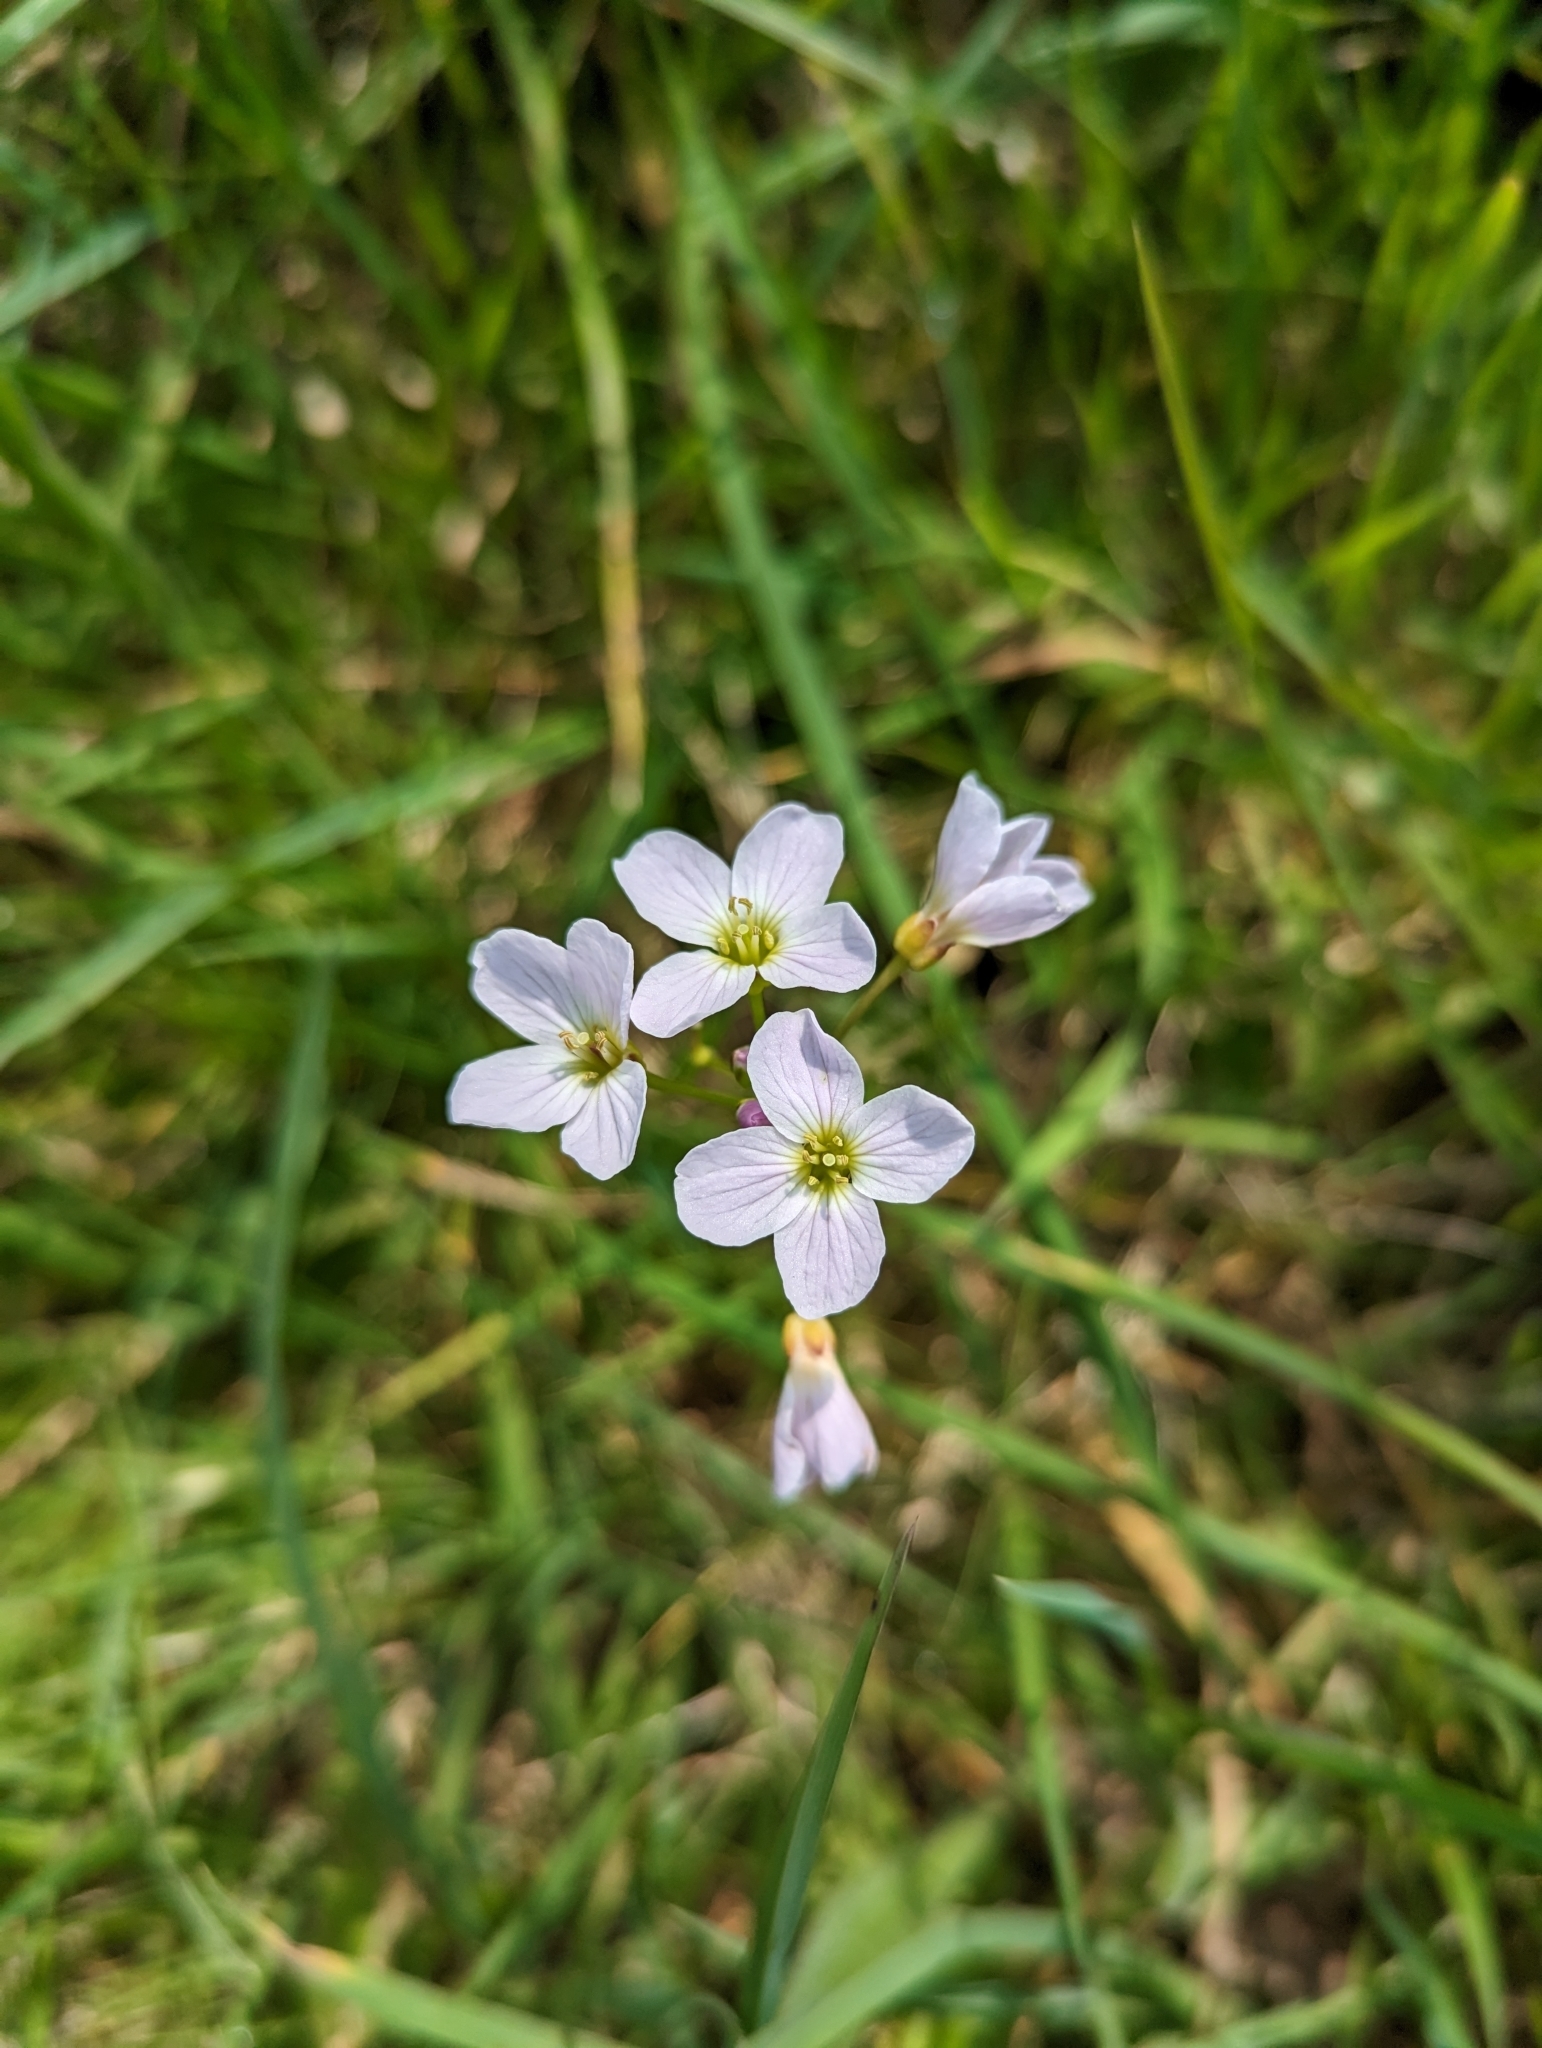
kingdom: Plantae
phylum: Tracheophyta
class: Magnoliopsida
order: Brassicales
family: Brassicaceae
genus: Cardamine
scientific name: Cardamine pratensis
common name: Cuckoo flower
